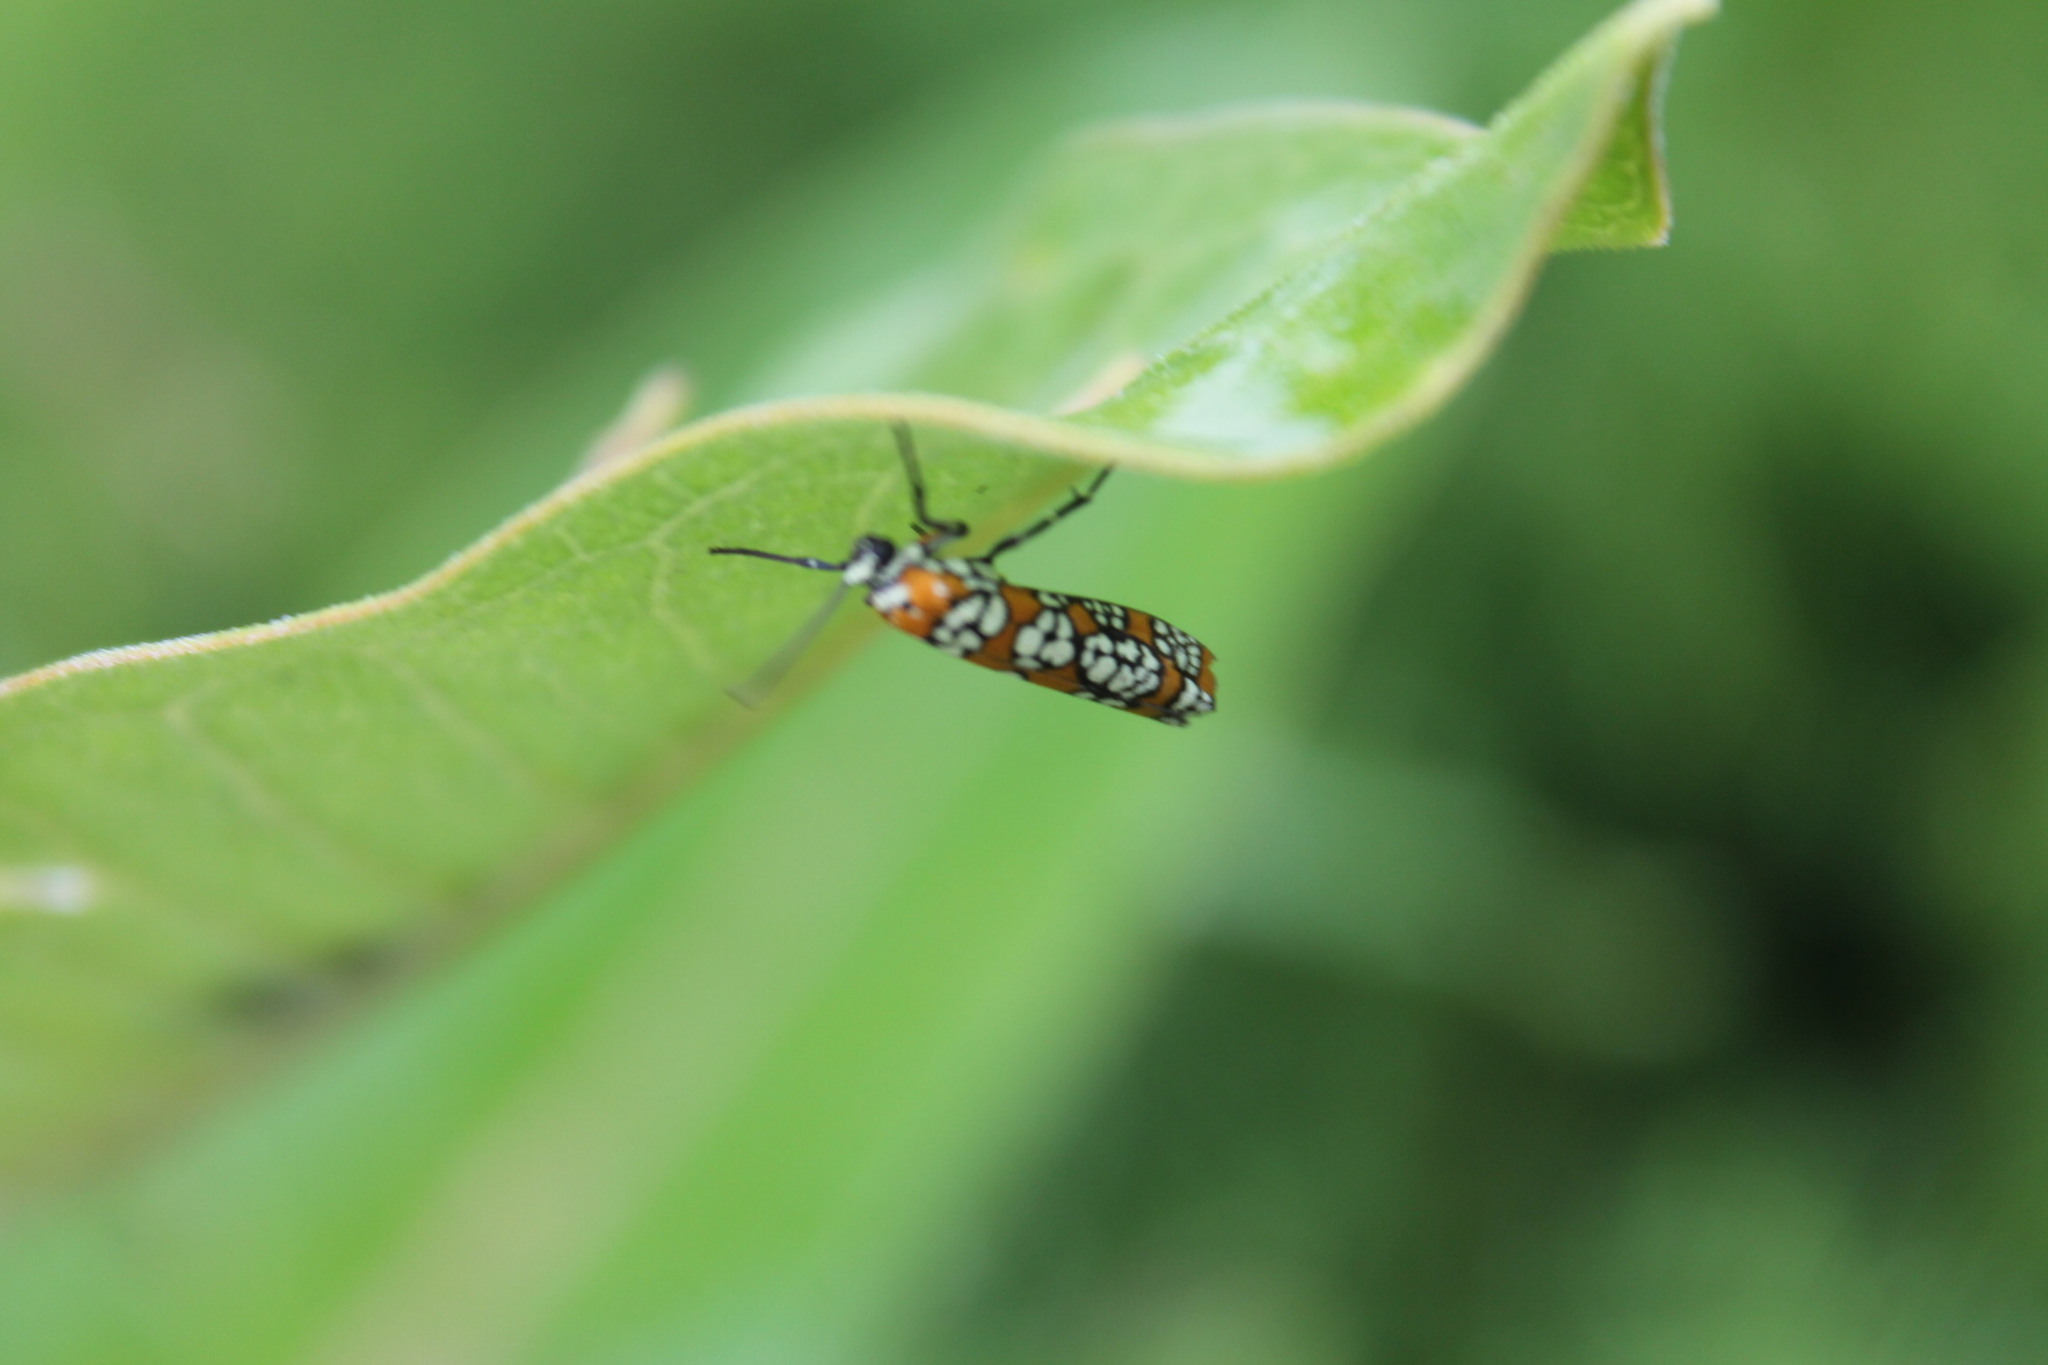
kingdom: Animalia
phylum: Arthropoda
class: Insecta
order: Lepidoptera
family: Attevidae
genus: Atteva
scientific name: Atteva punctella
